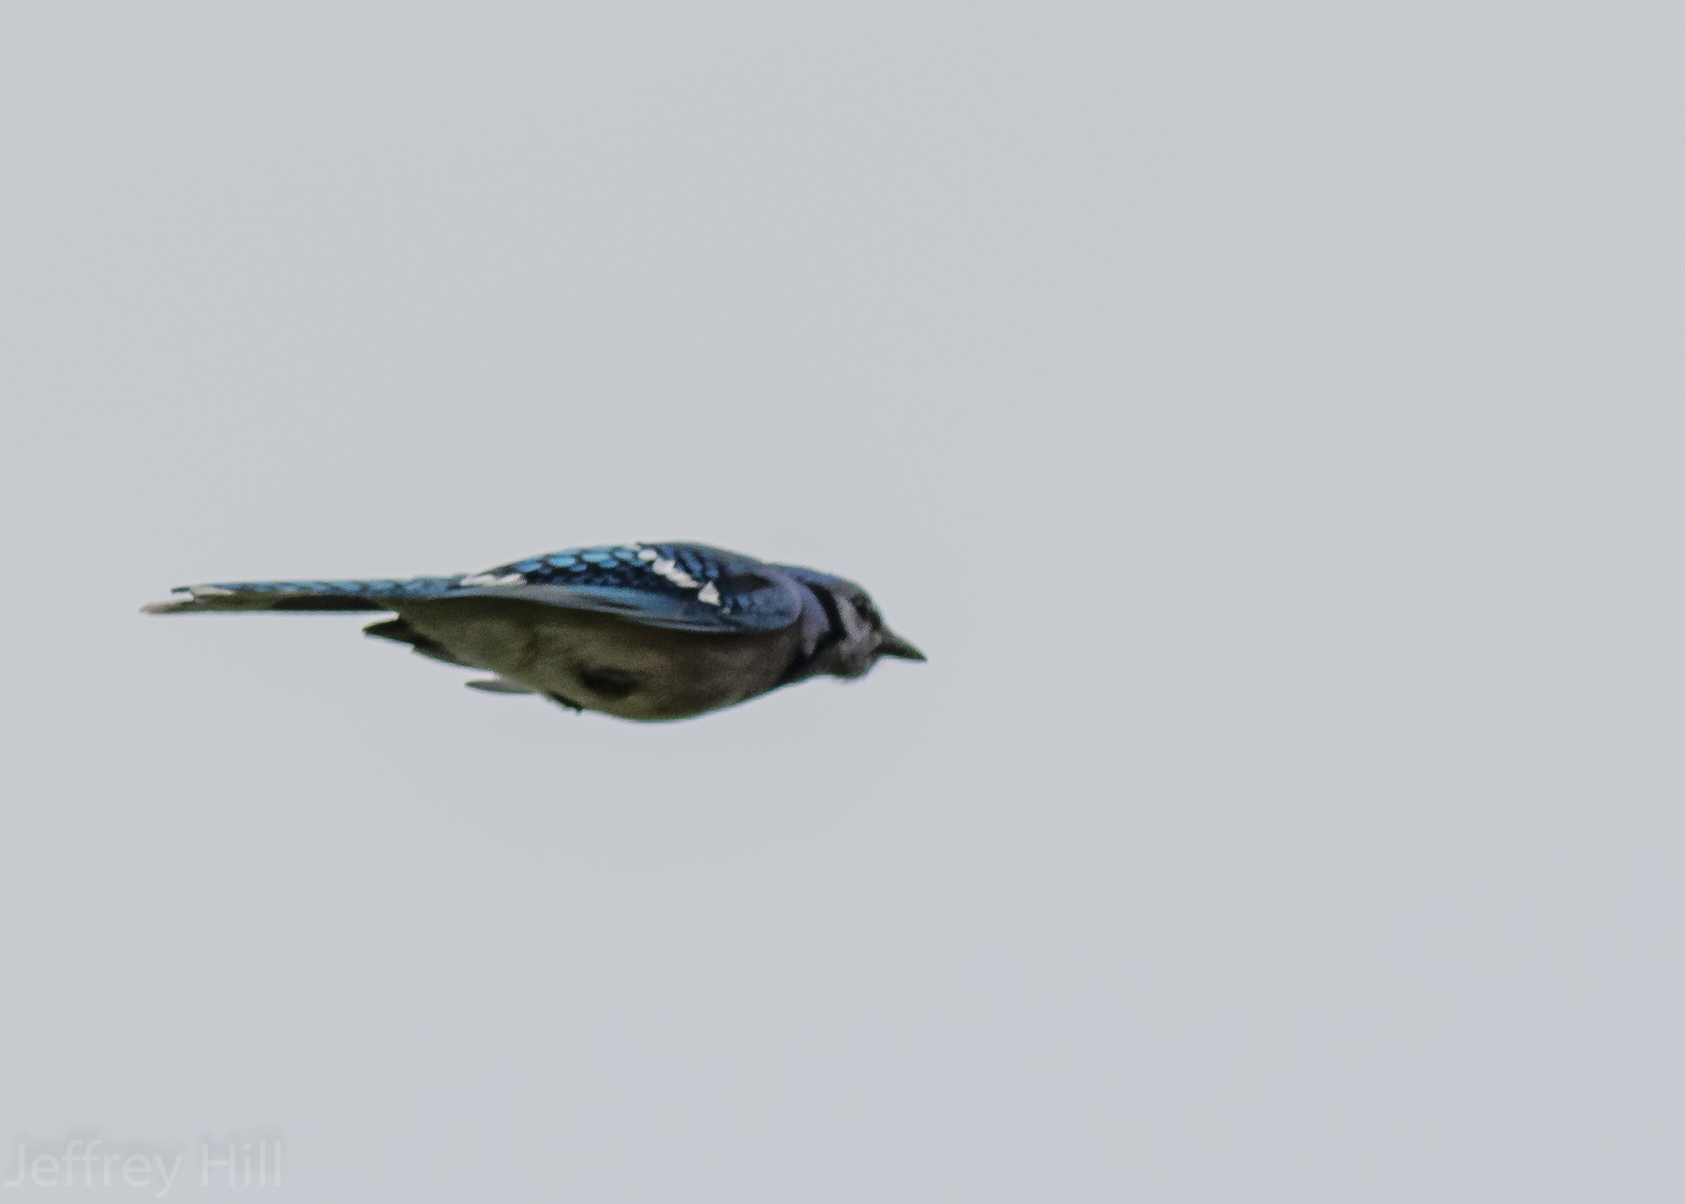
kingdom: Animalia
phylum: Chordata
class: Aves
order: Passeriformes
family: Corvidae
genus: Cyanocitta
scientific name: Cyanocitta cristata
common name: Blue jay
